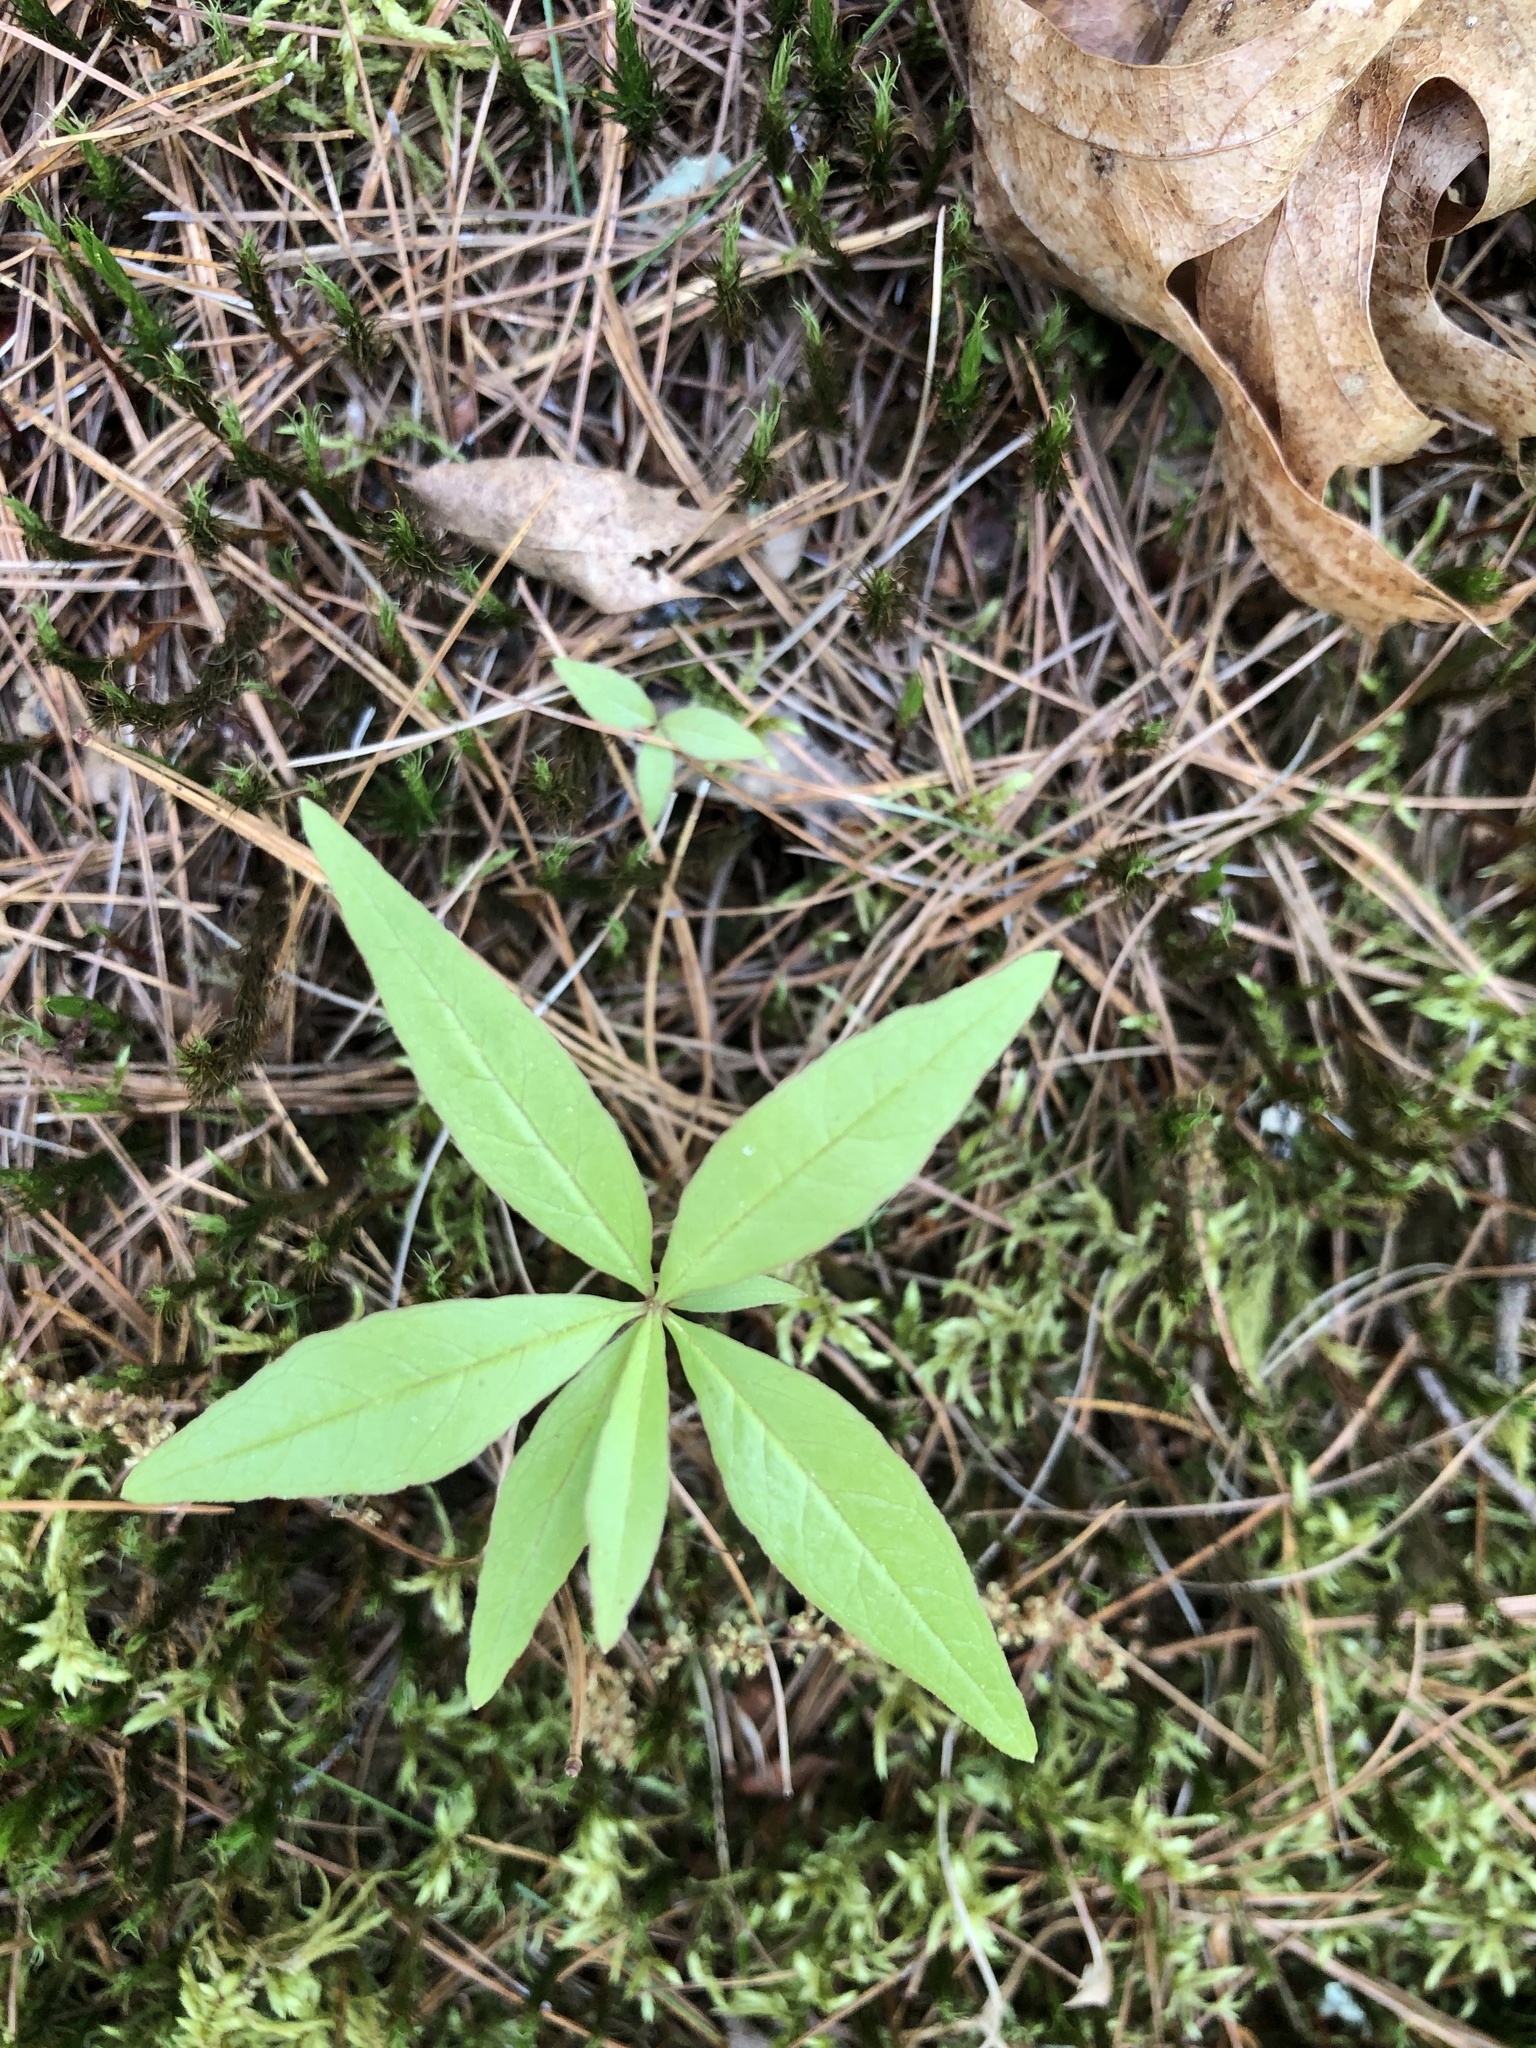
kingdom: Plantae
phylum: Tracheophyta
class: Magnoliopsida
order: Ericales
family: Primulaceae
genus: Lysimachia
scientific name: Lysimachia borealis
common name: American starflower
